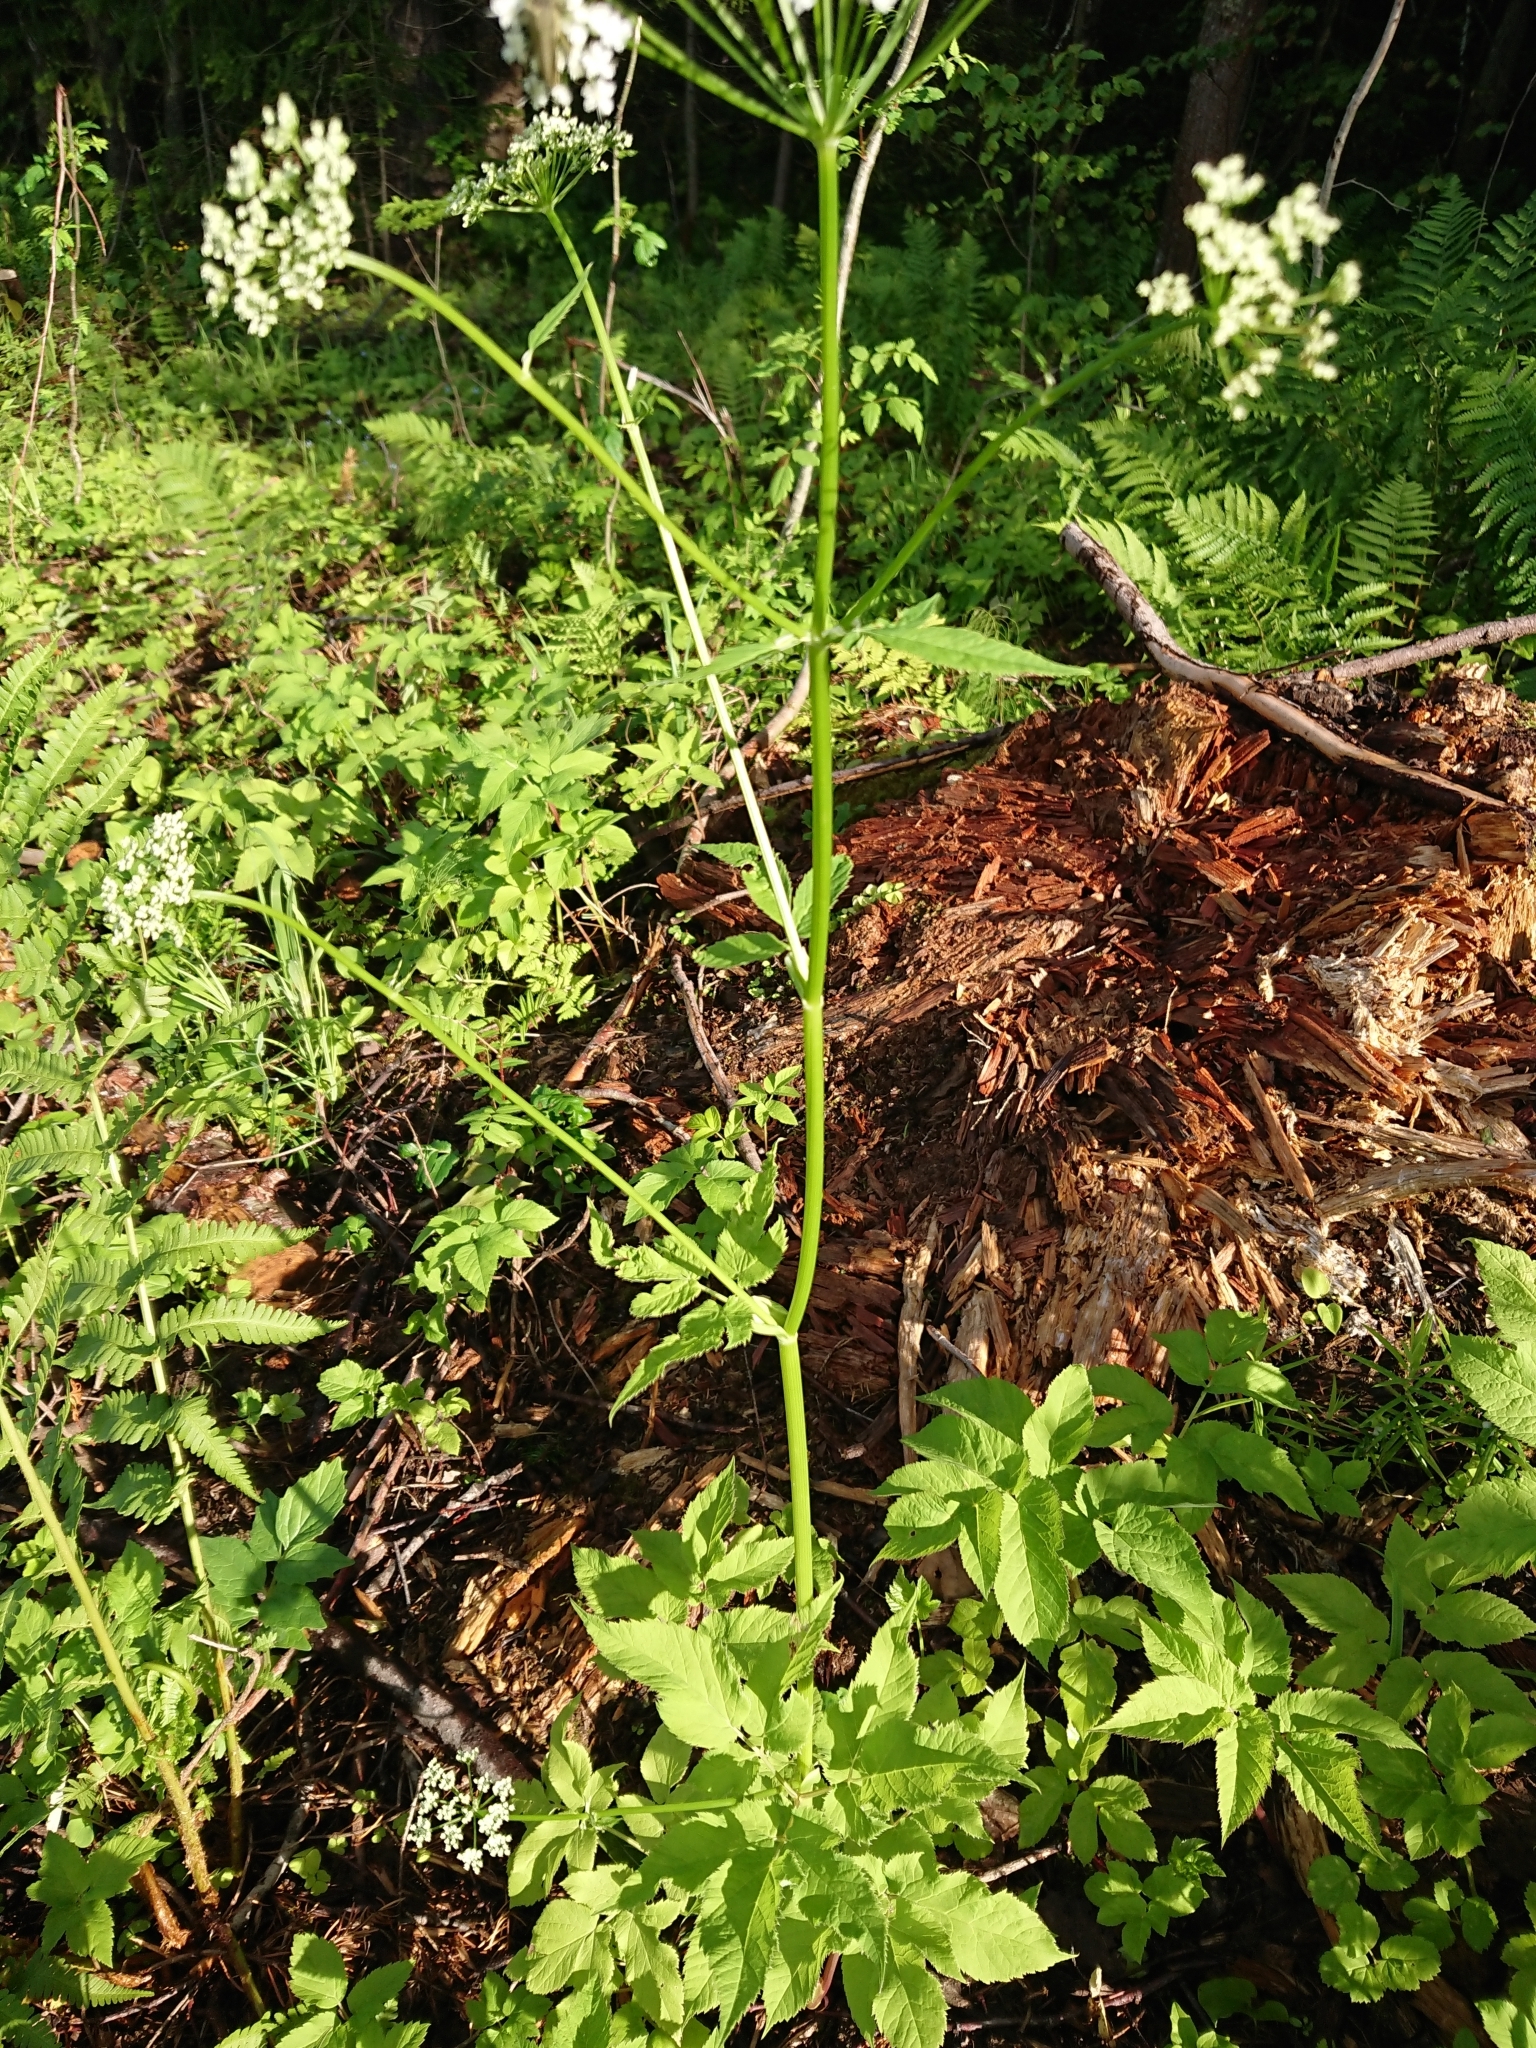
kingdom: Plantae
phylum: Tracheophyta
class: Magnoliopsida
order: Apiales
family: Apiaceae
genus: Aegopodium
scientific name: Aegopodium podagraria
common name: Ground-elder
